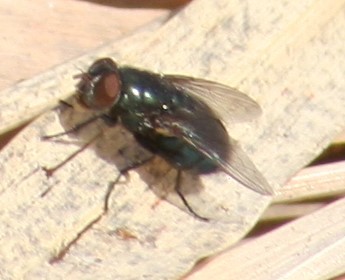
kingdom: Animalia
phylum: Arthropoda
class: Insecta
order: Diptera
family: Calliphoridae
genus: Phormia
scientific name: Phormia regina
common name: Black blow fly
